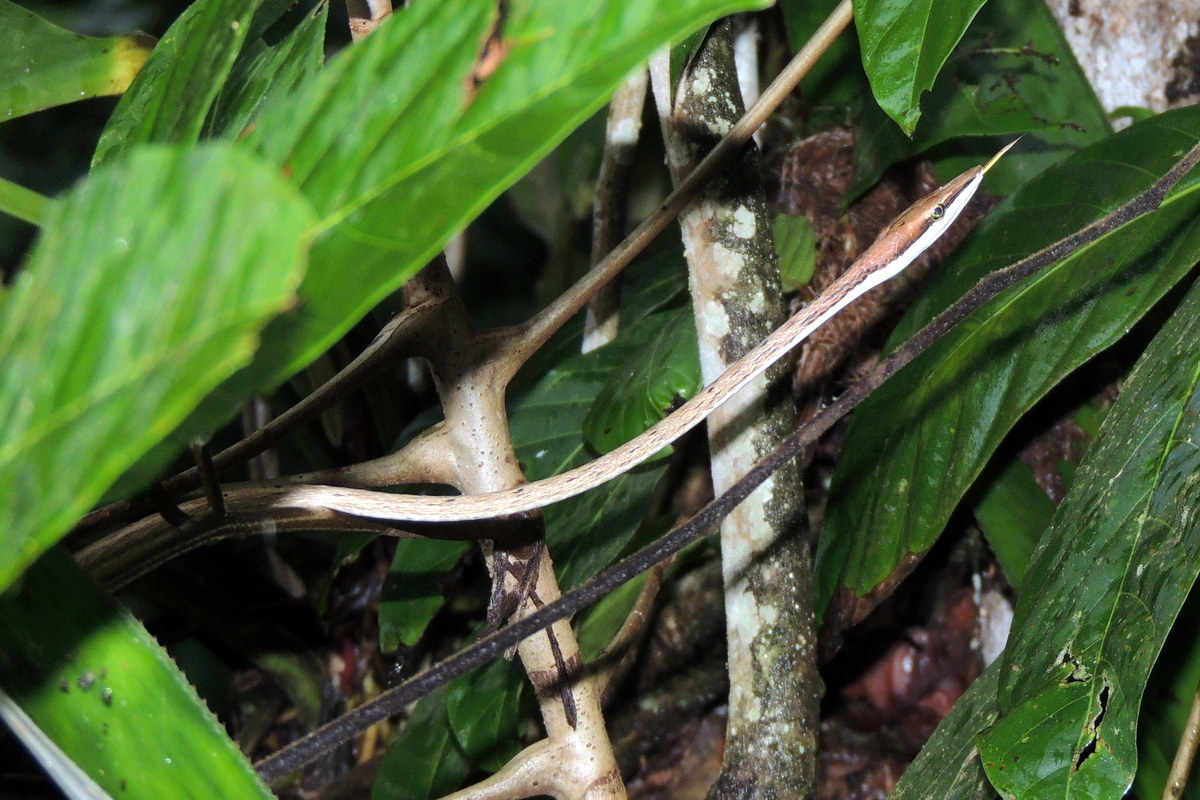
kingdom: Animalia
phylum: Chordata
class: Squamata
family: Colubridae
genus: Oxybelis
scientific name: Oxybelis koehleri
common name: Köhler’s vine snake
